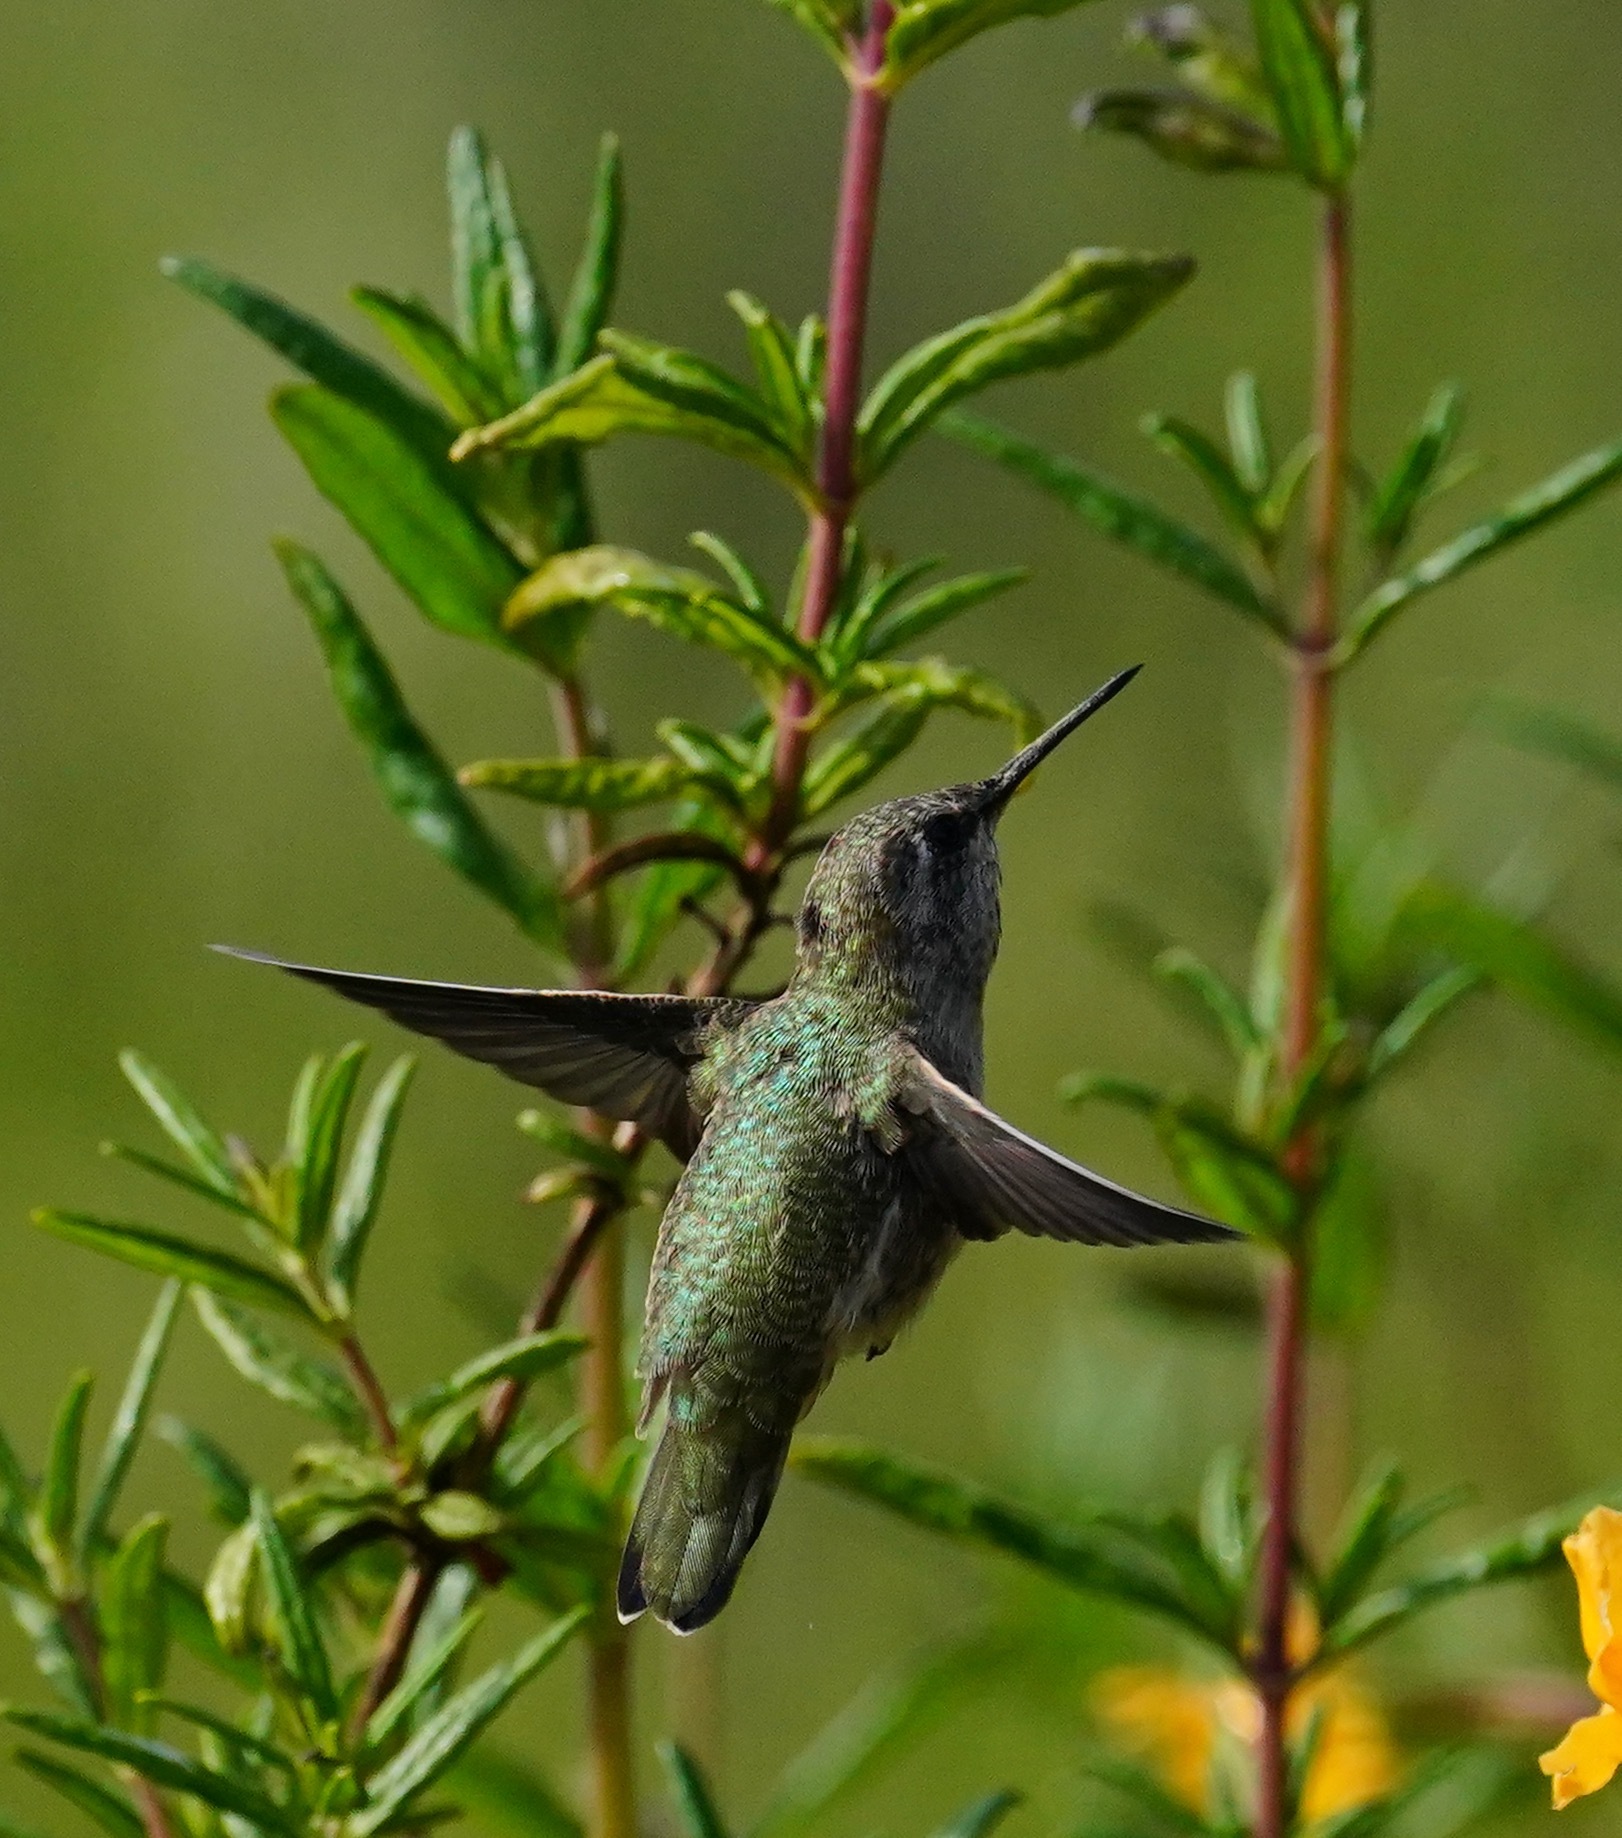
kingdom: Animalia
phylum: Chordata
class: Aves
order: Apodiformes
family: Trochilidae
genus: Calypte
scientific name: Calypte anna
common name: Anna's hummingbird
